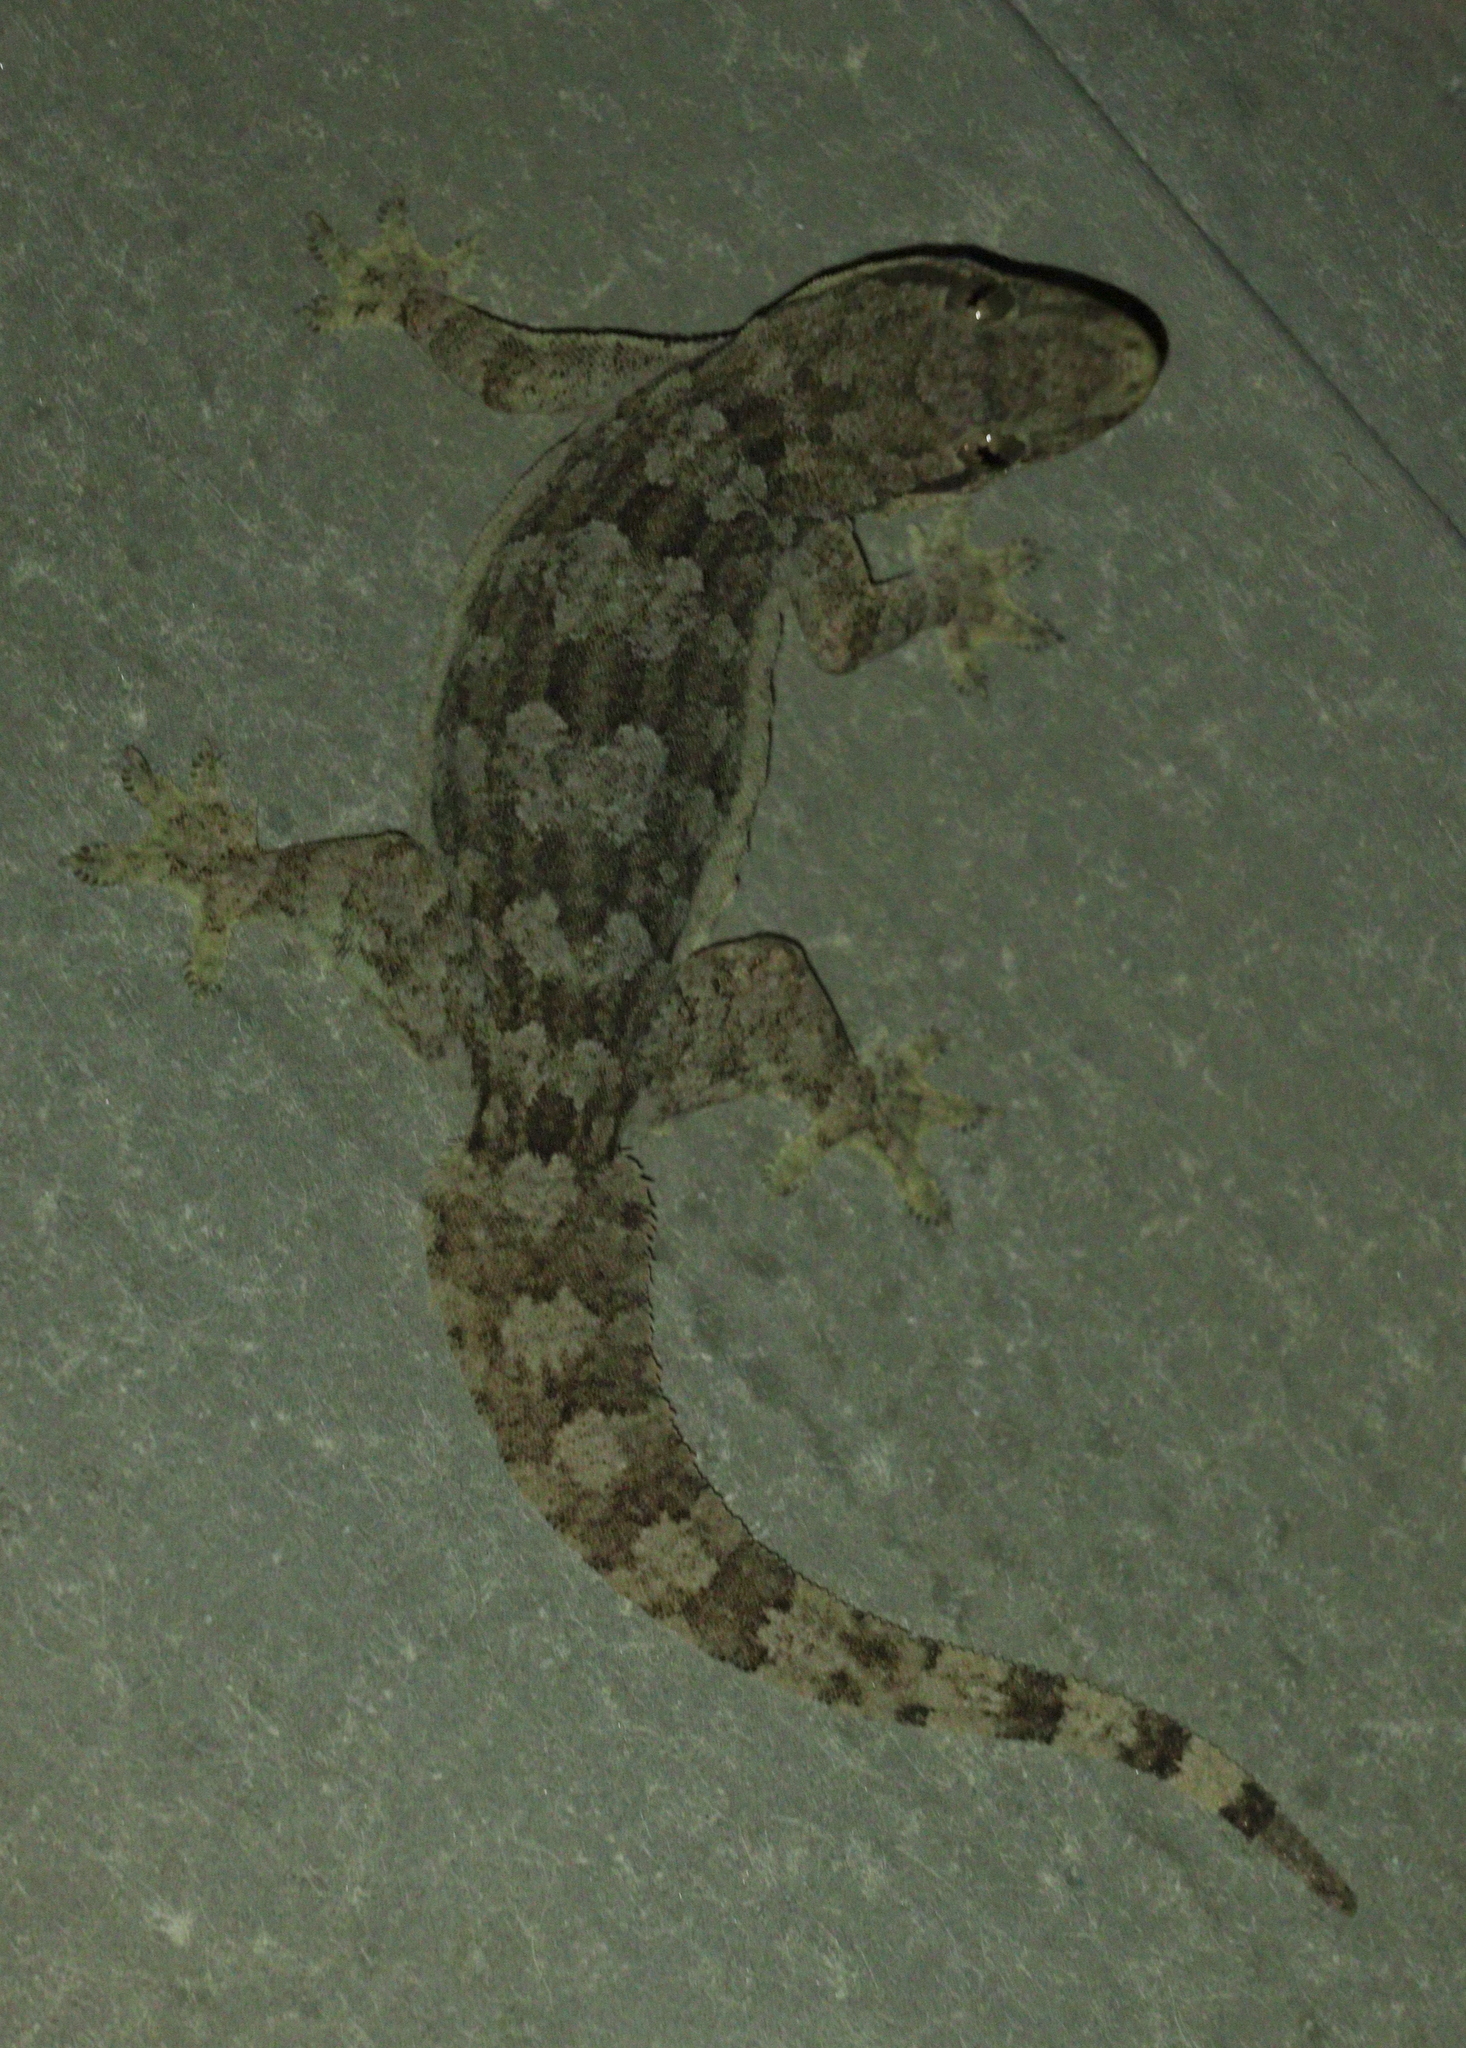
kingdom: Animalia
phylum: Chordata
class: Squamata
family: Gekkonidae
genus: Hemidactylus
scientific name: Hemidactylus platyurus
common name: Flat-tailed house gecko
